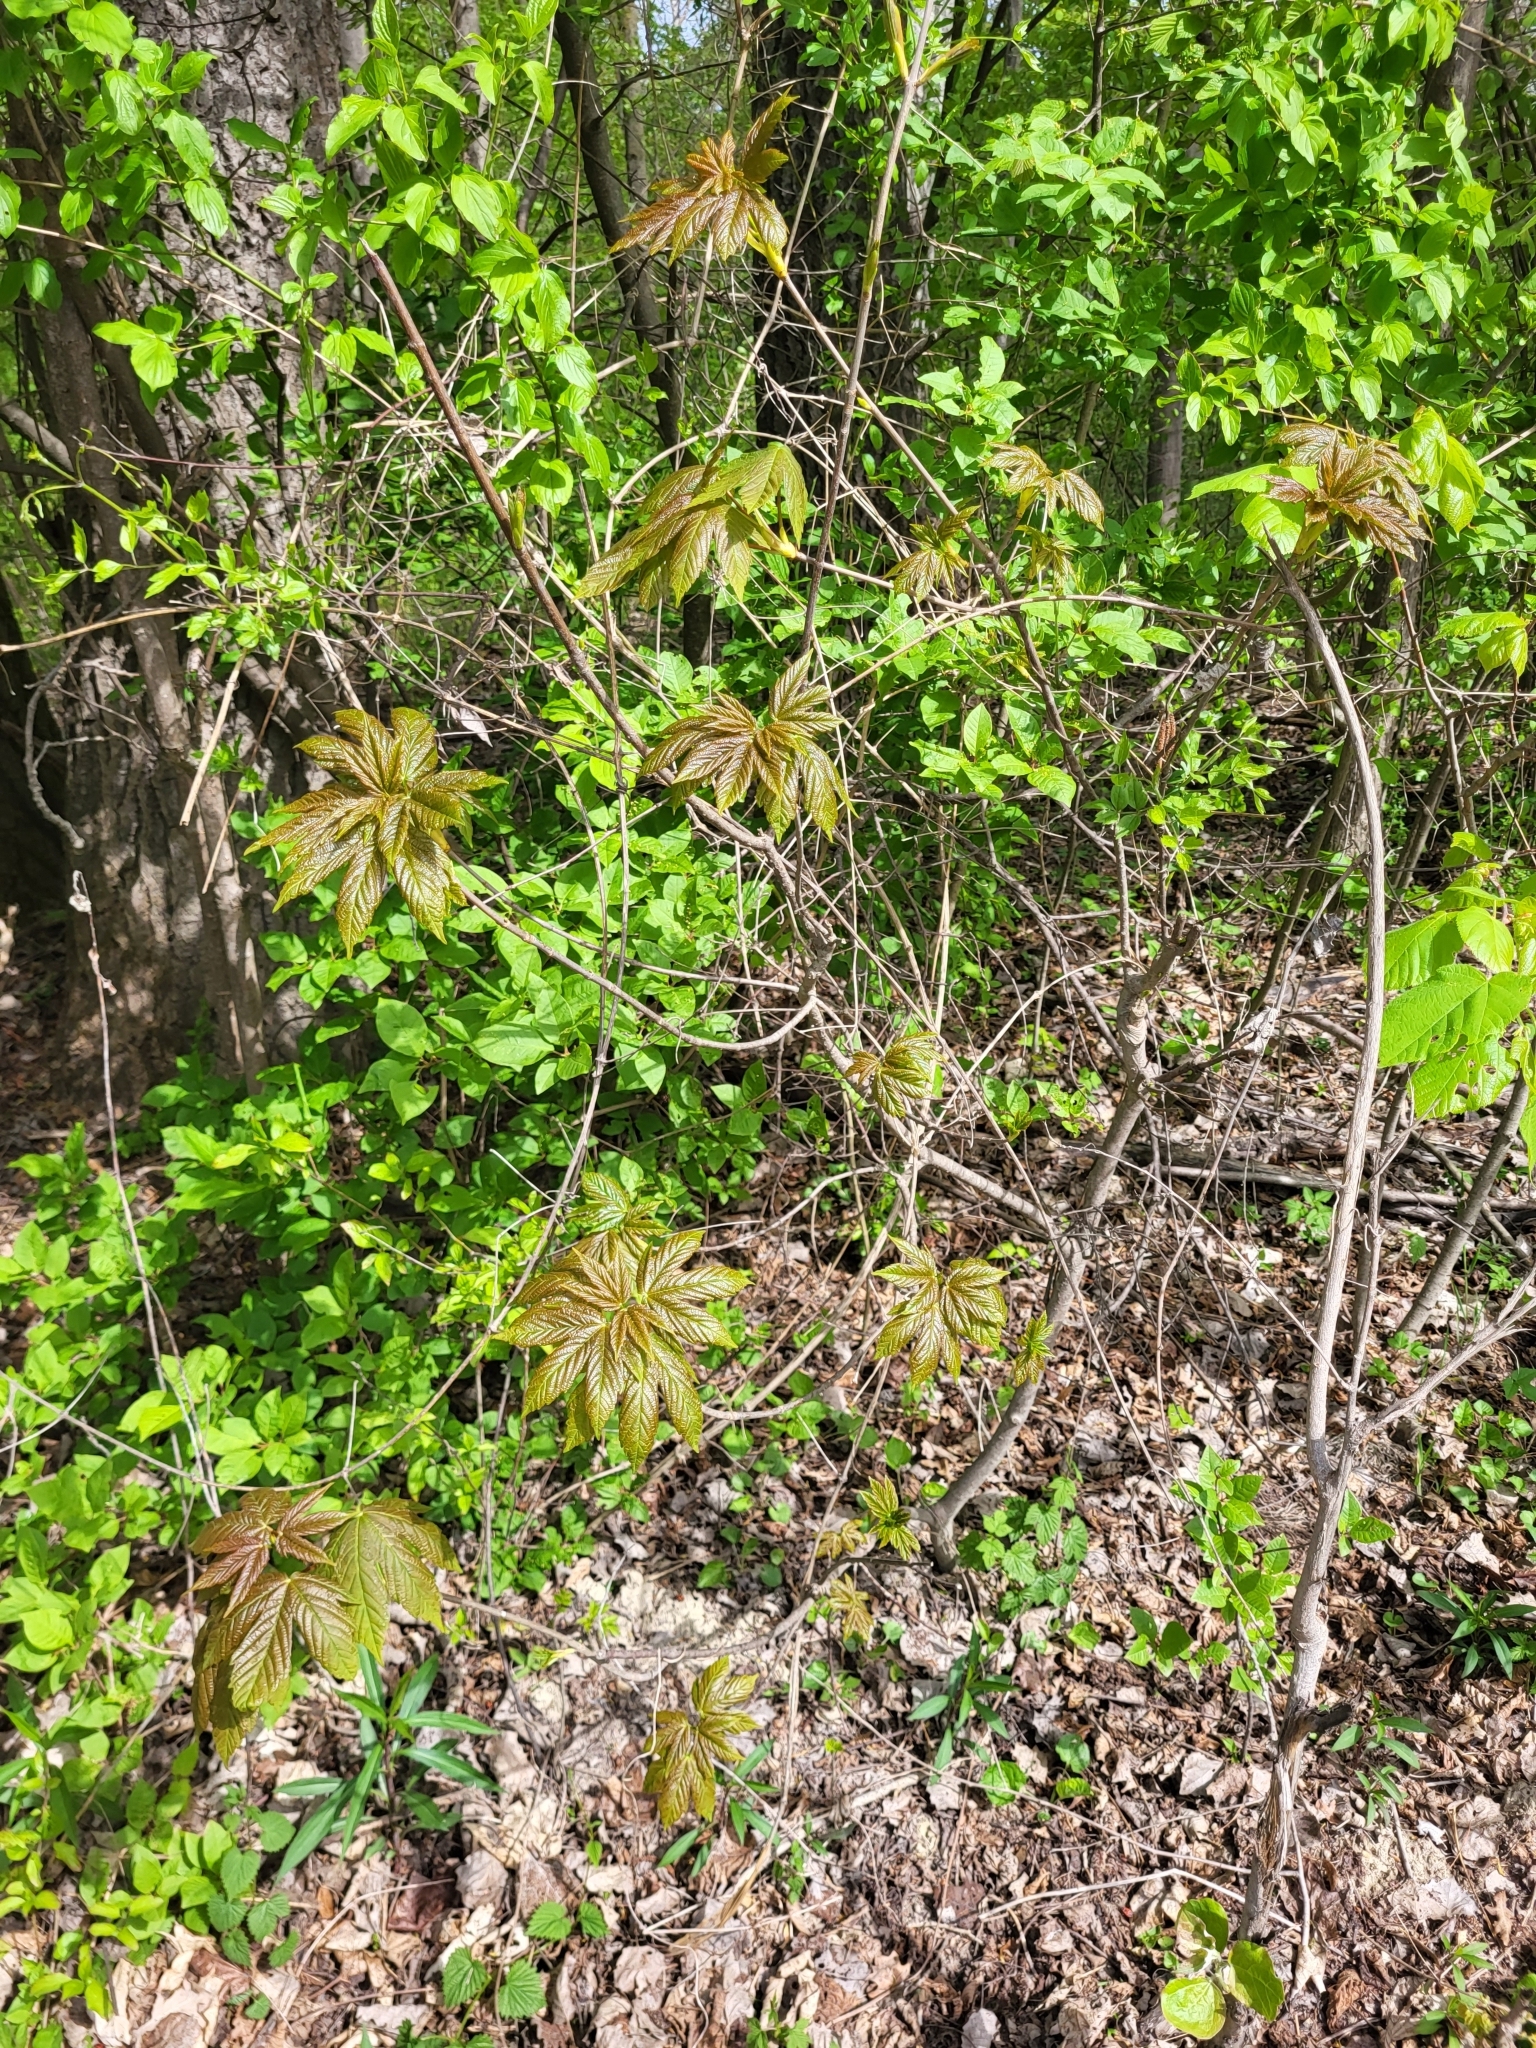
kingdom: Plantae
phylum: Tracheophyta
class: Magnoliopsida
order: Sapindales
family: Sapindaceae
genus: Acer
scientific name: Acer pseudoplatanus
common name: Sycamore
